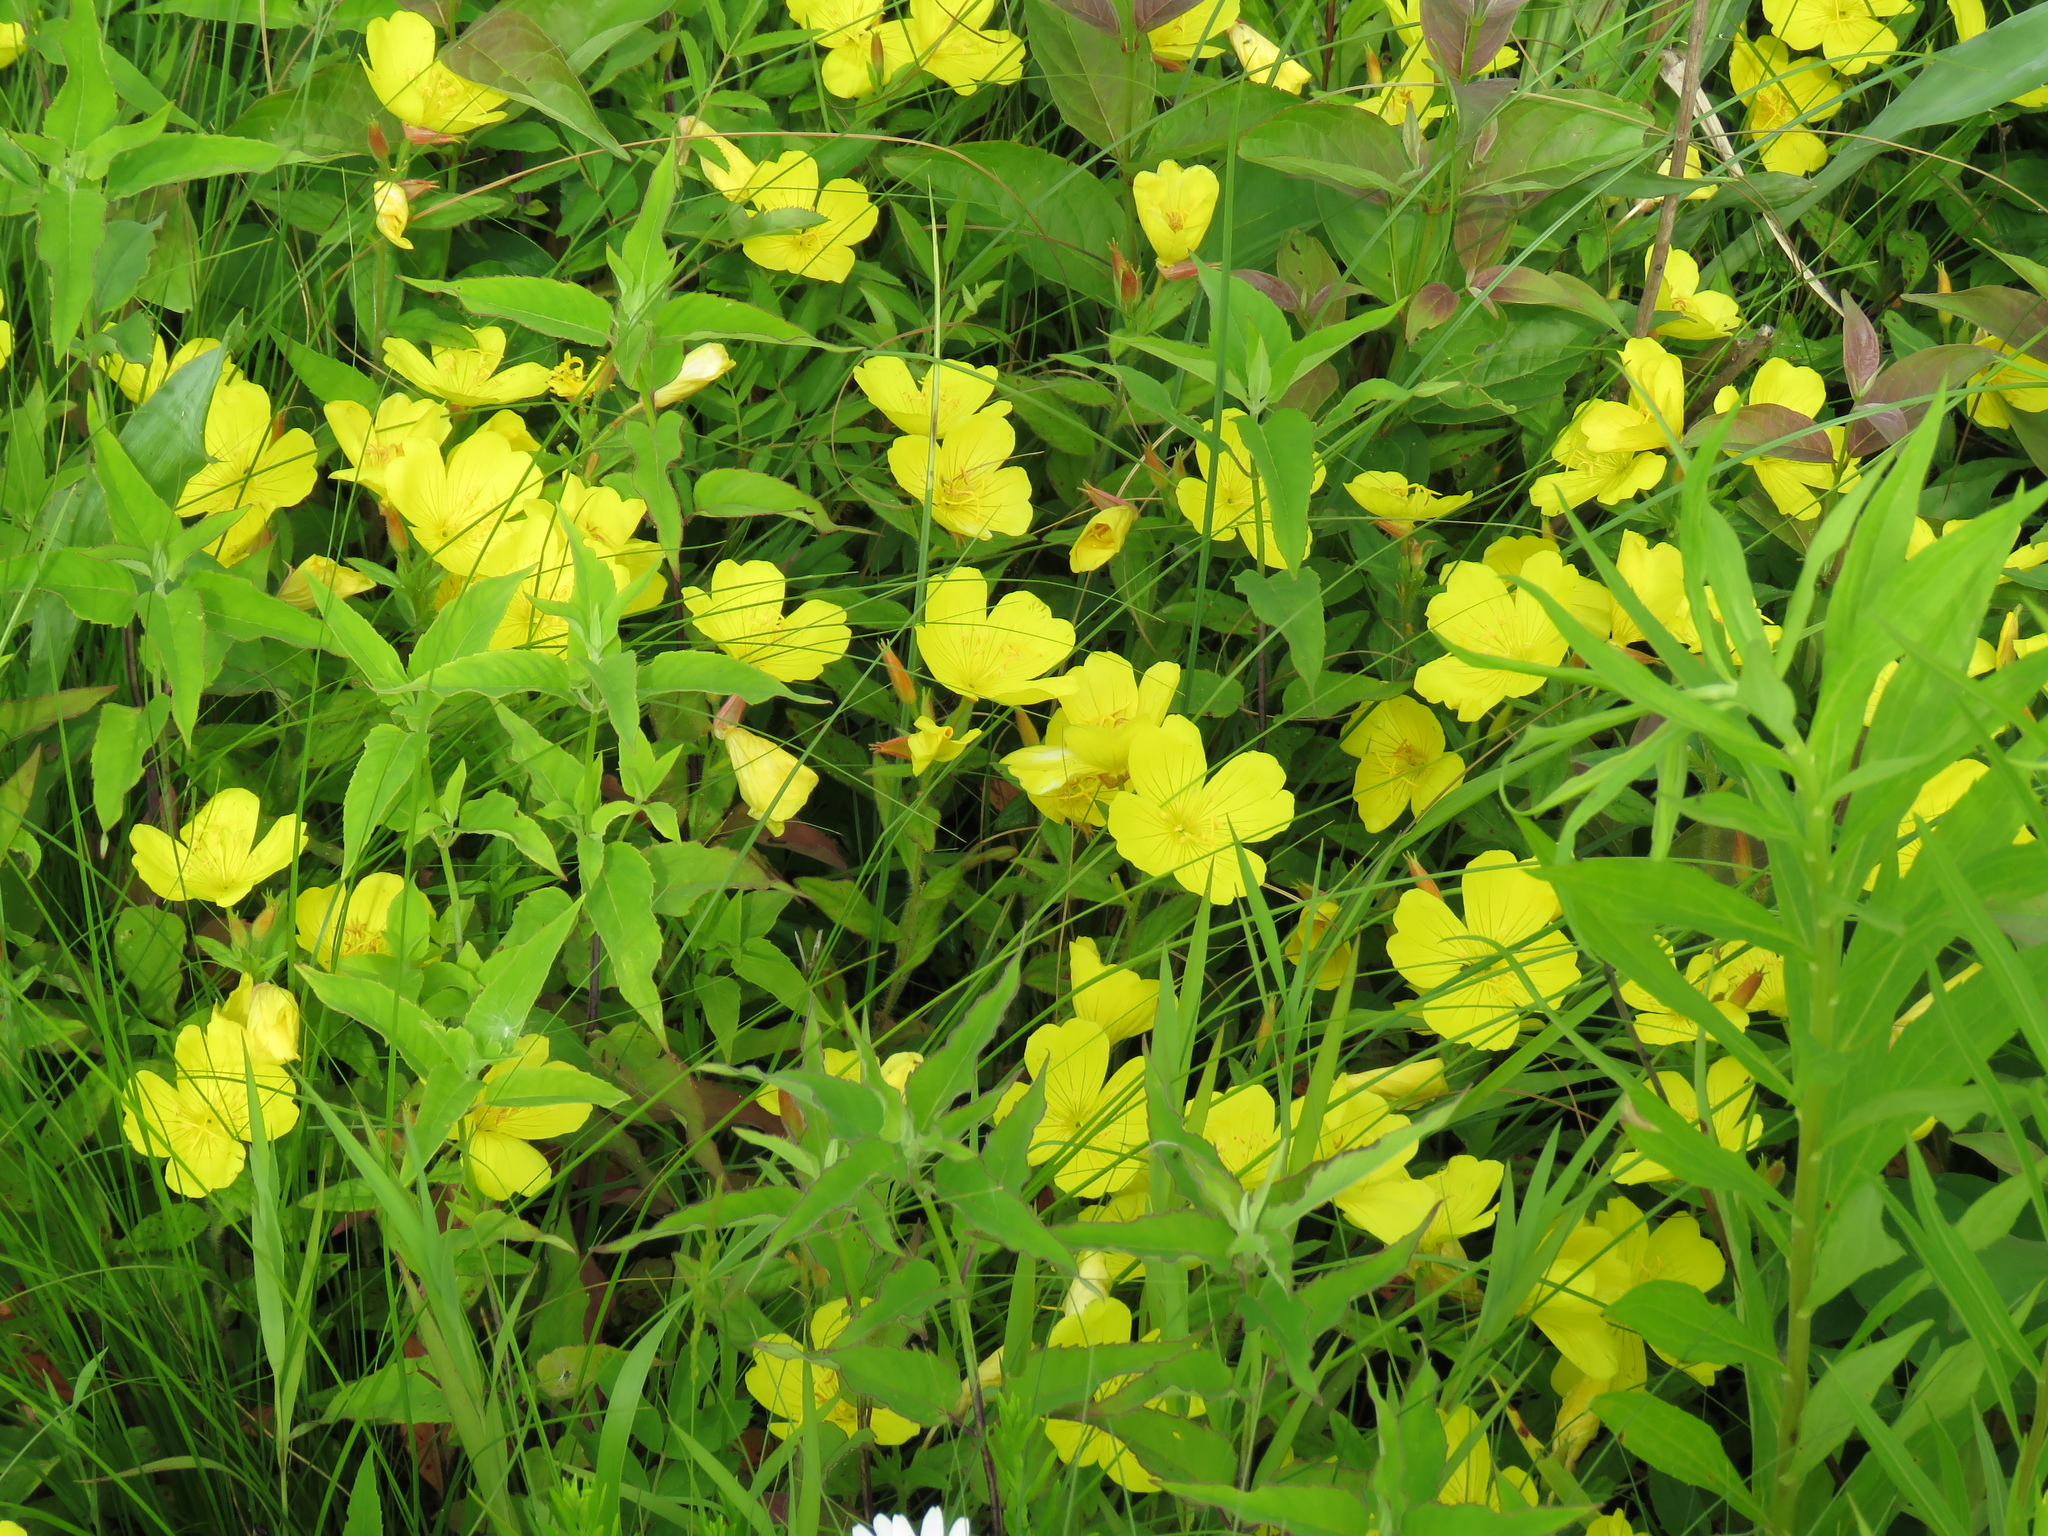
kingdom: Plantae
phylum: Tracheophyta
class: Magnoliopsida
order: Myrtales
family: Onagraceae
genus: Oenothera
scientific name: Oenothera pilosella
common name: Finely-pilose evening-primrose
